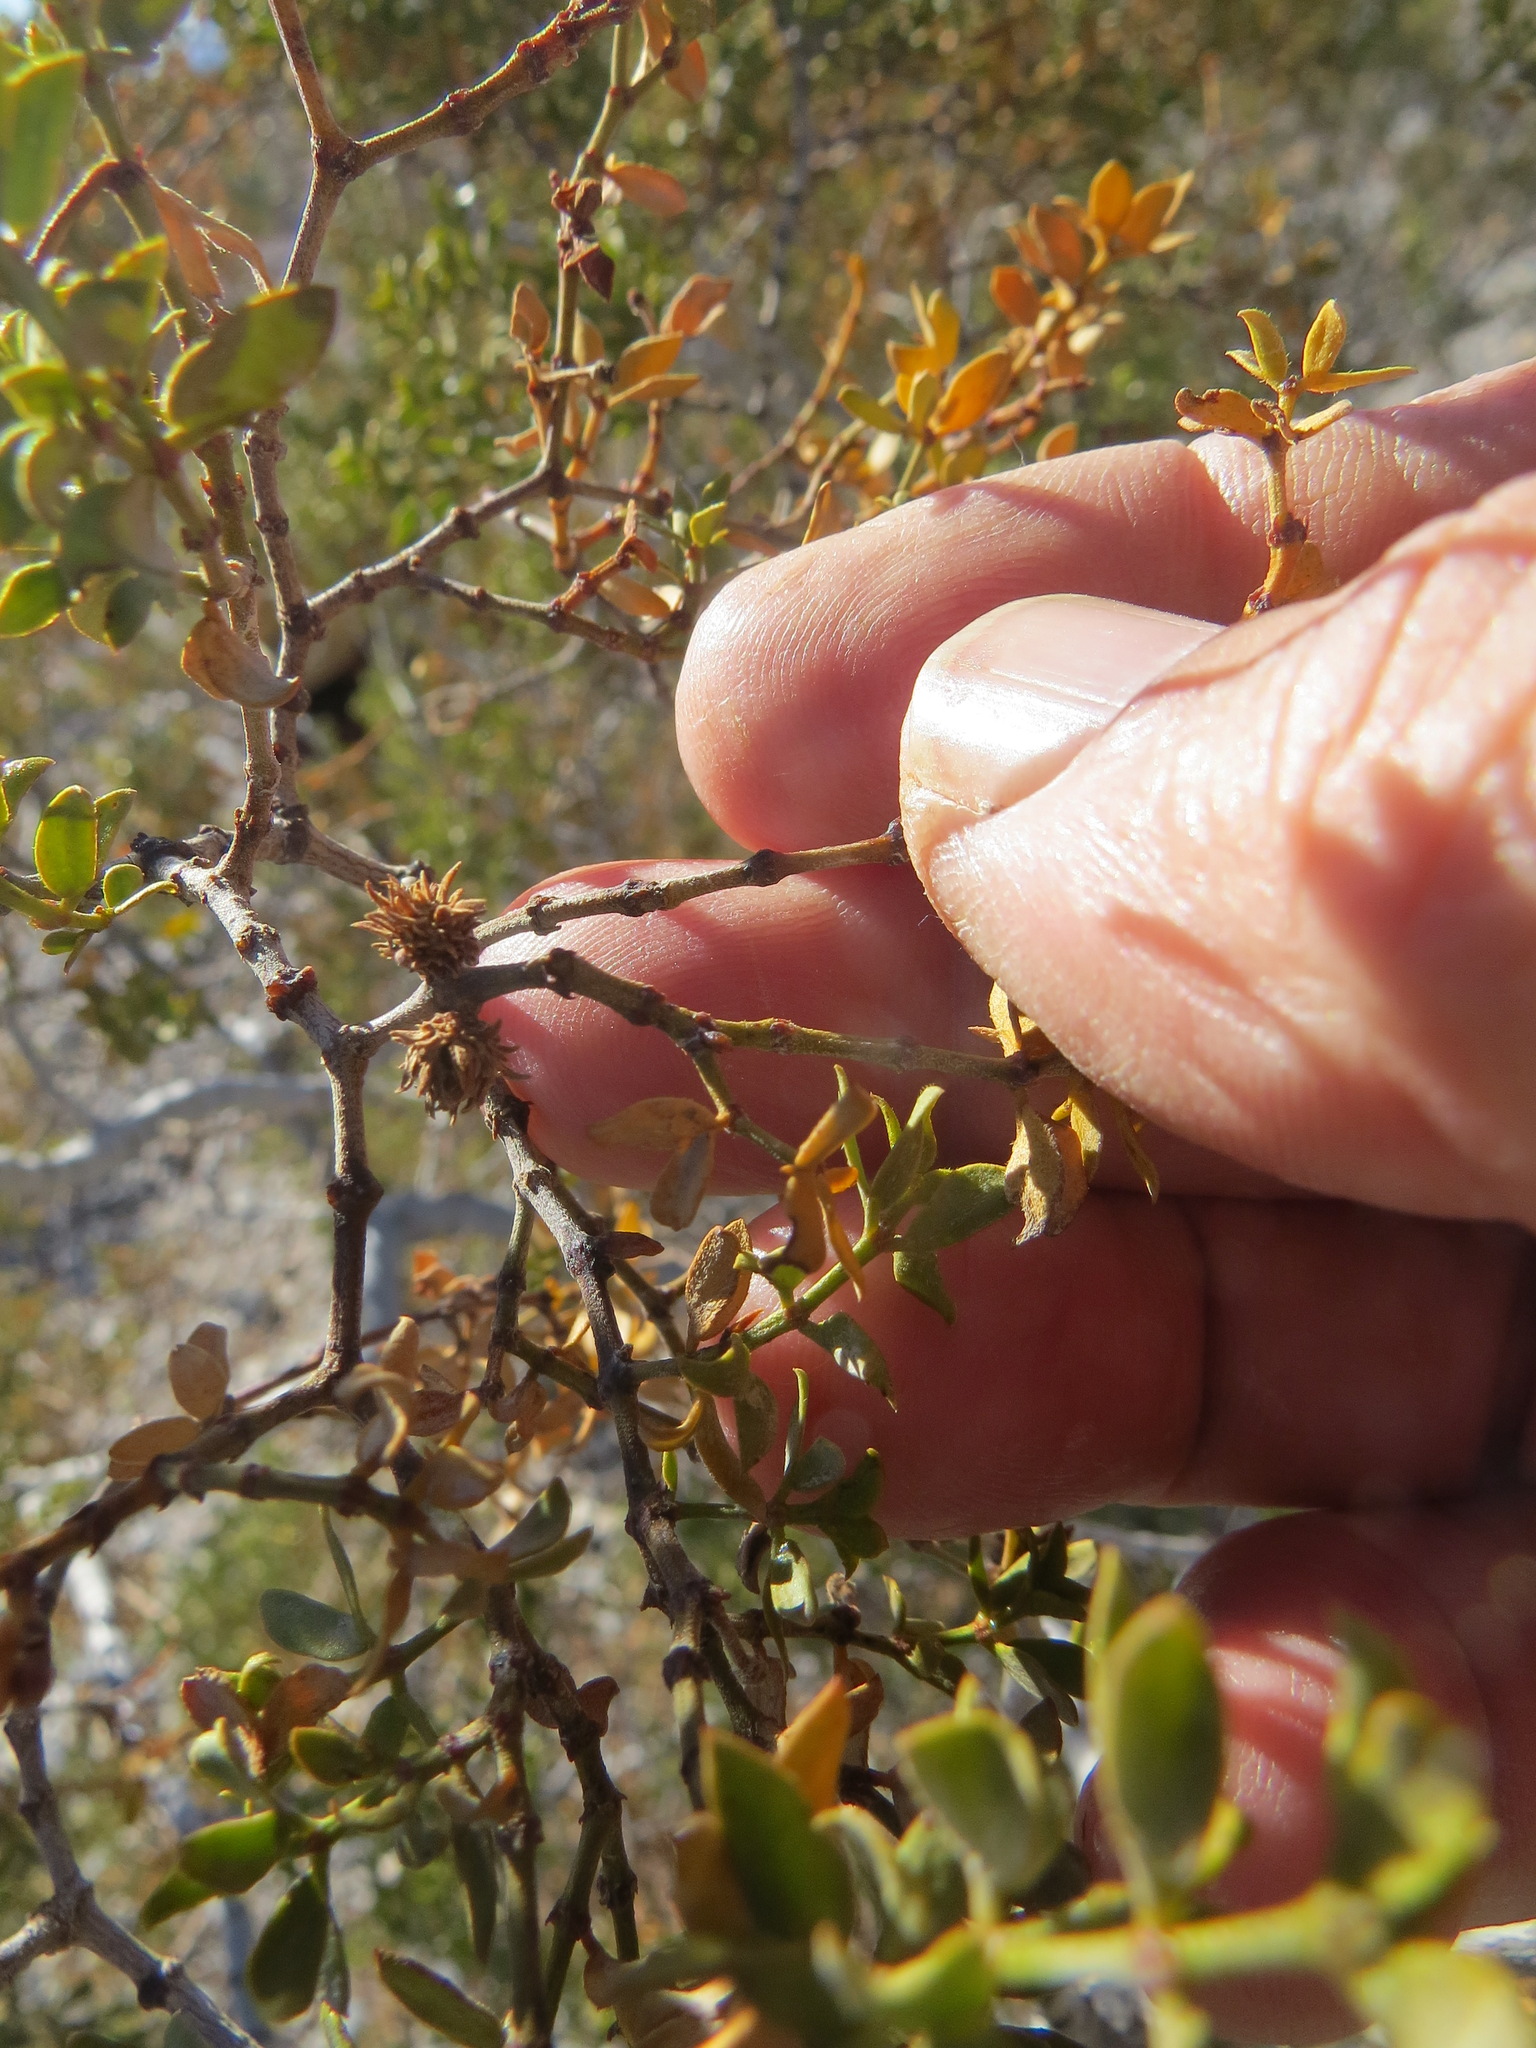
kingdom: Animalia
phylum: Arthropoda
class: Insecta
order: Diptera
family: Cecidomyiidae
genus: Asphondylia
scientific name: Asphondylia rosetta
